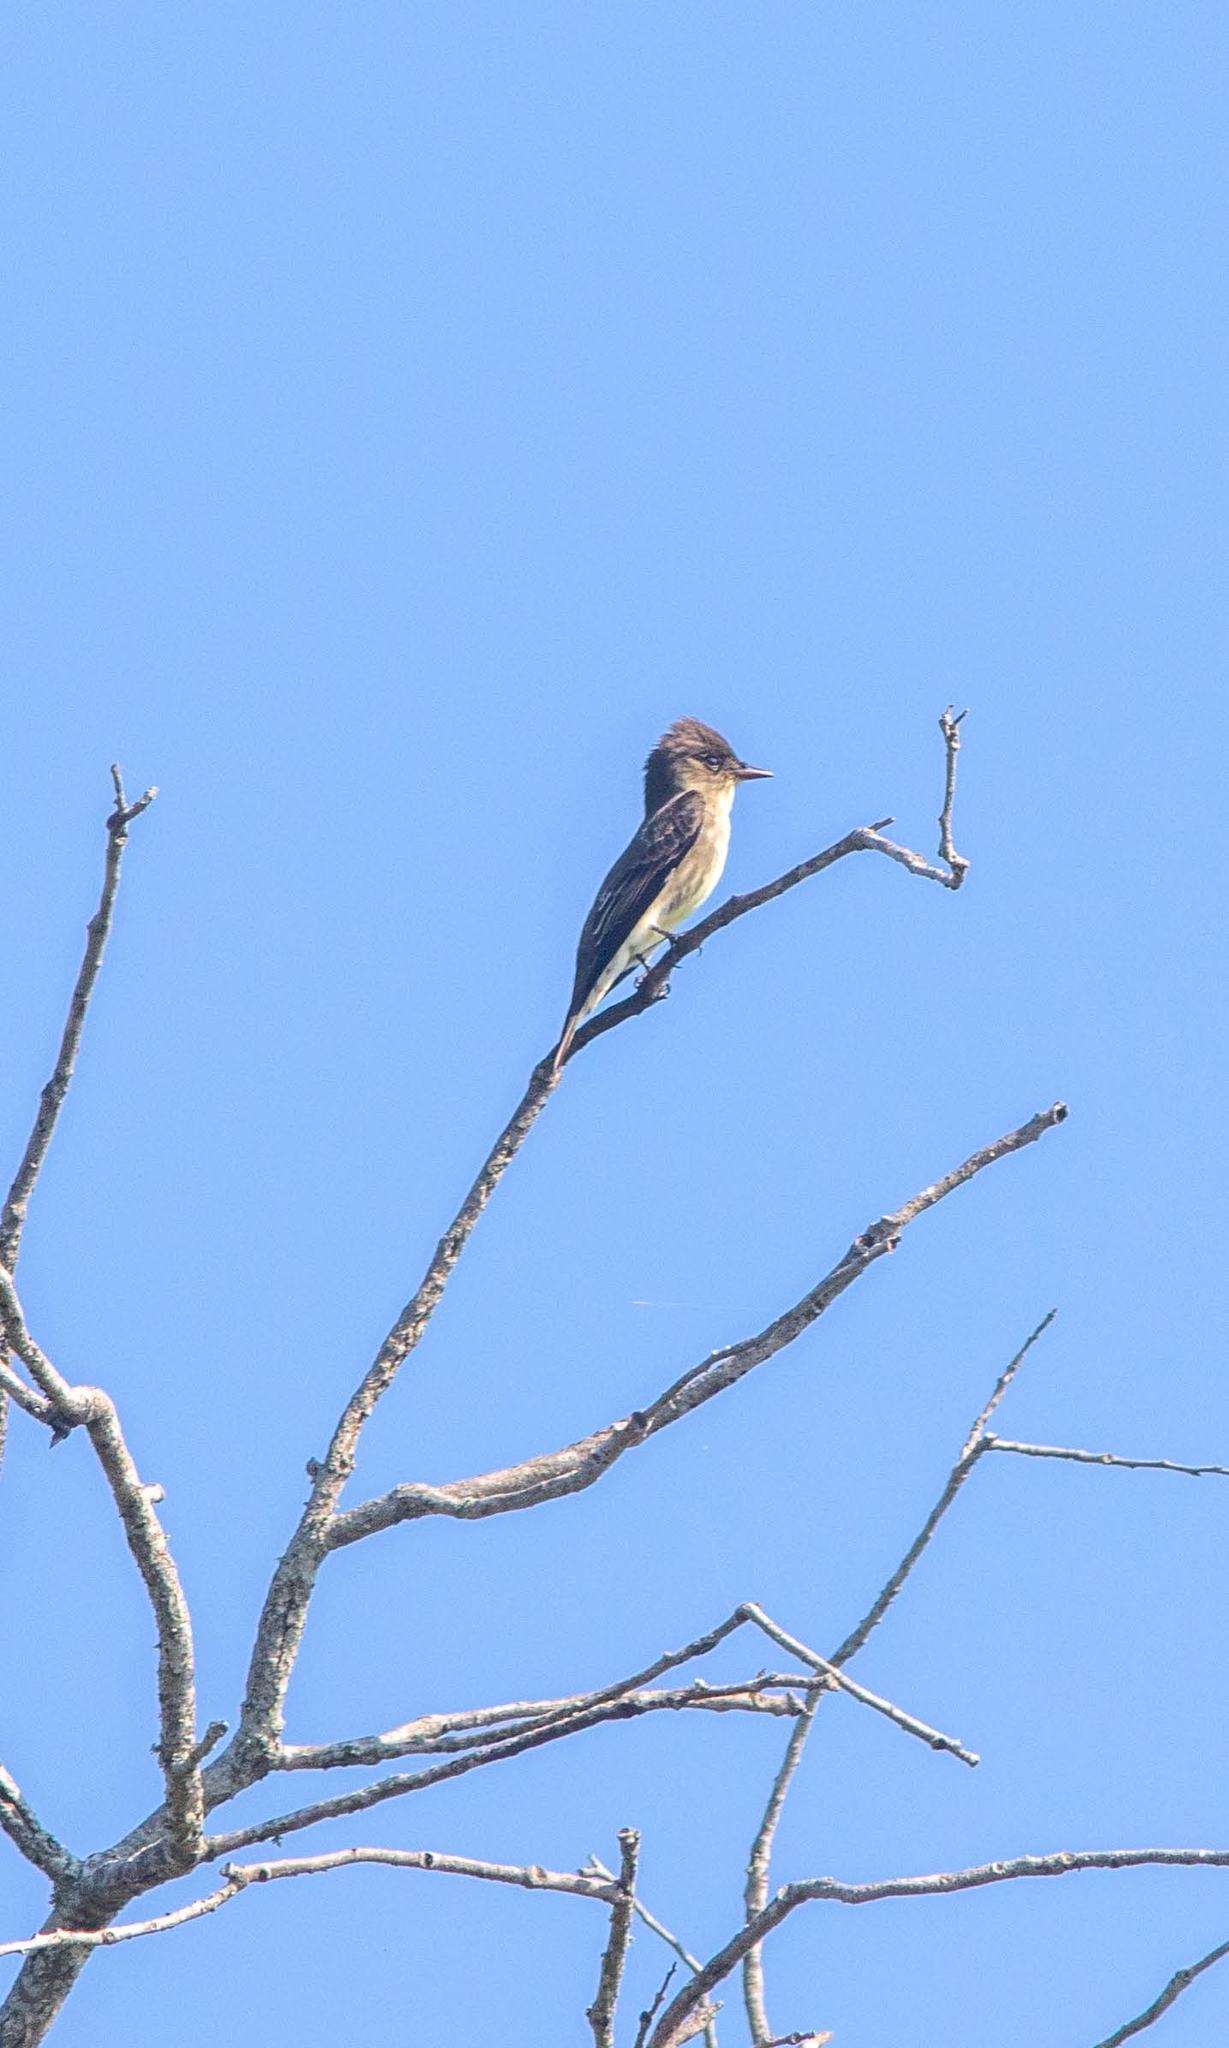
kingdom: Animalia
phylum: Chordata
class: Aves
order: Passeriformes
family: Tyrannidae
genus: Contopus
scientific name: Contopus cooperi
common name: Olive-sided flycatcher
